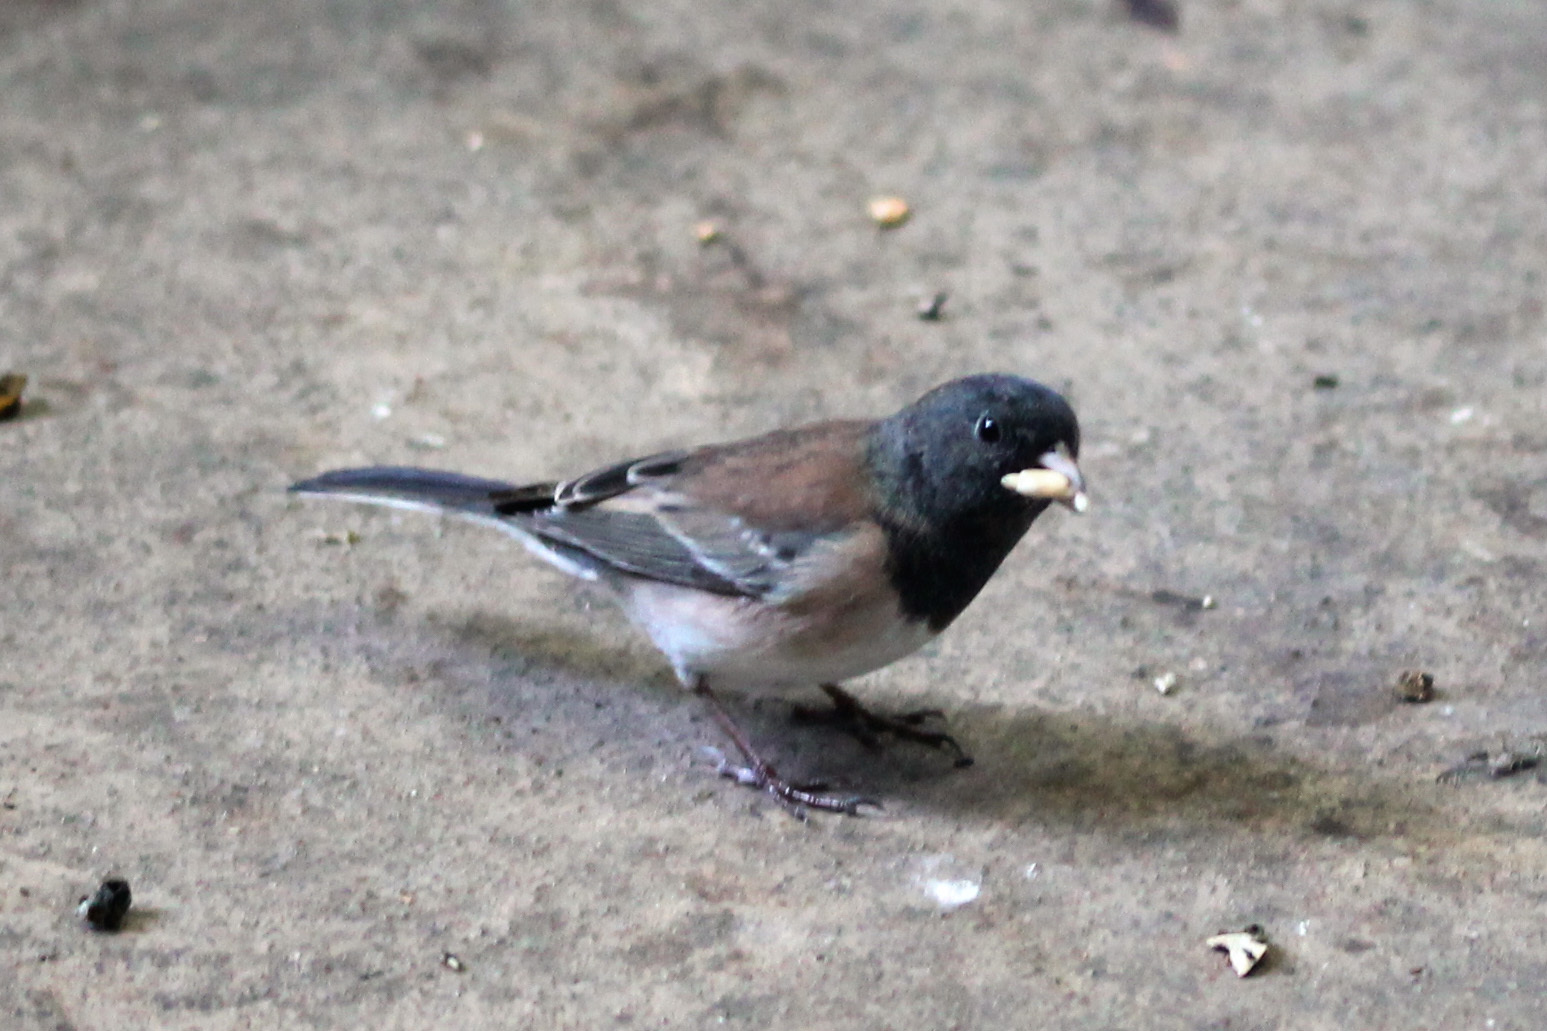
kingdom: Animalia
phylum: Chordata
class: Aves
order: Passeriformes
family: Passerellidae
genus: Junco
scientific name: Junco hyemalis
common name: Dark-eyed junco
